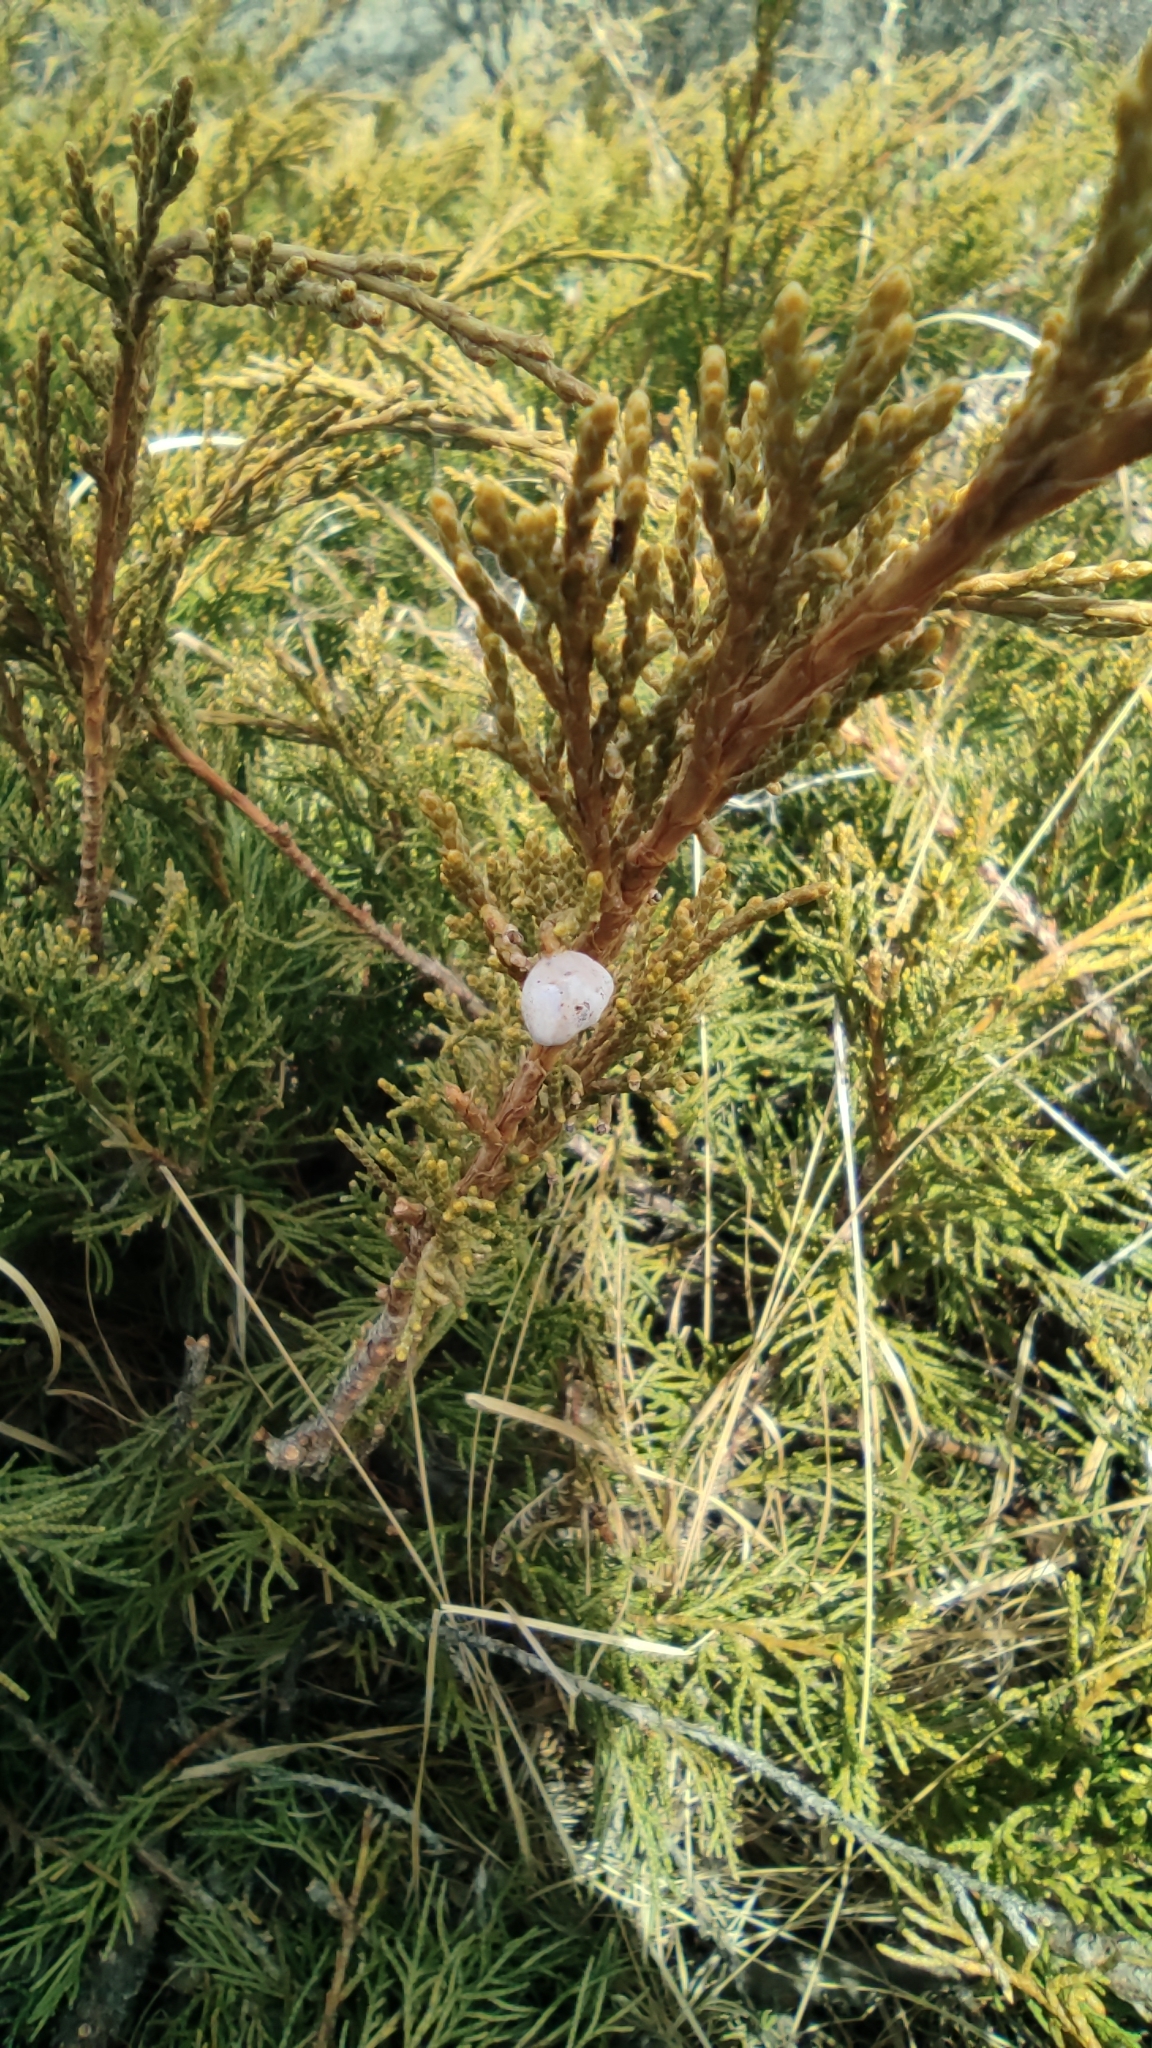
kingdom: Plantae
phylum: Tracheophyta
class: Pinopsida
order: Pinales
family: Cupressaceae
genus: Juniperus
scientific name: Juniperus sabina
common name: Savin
